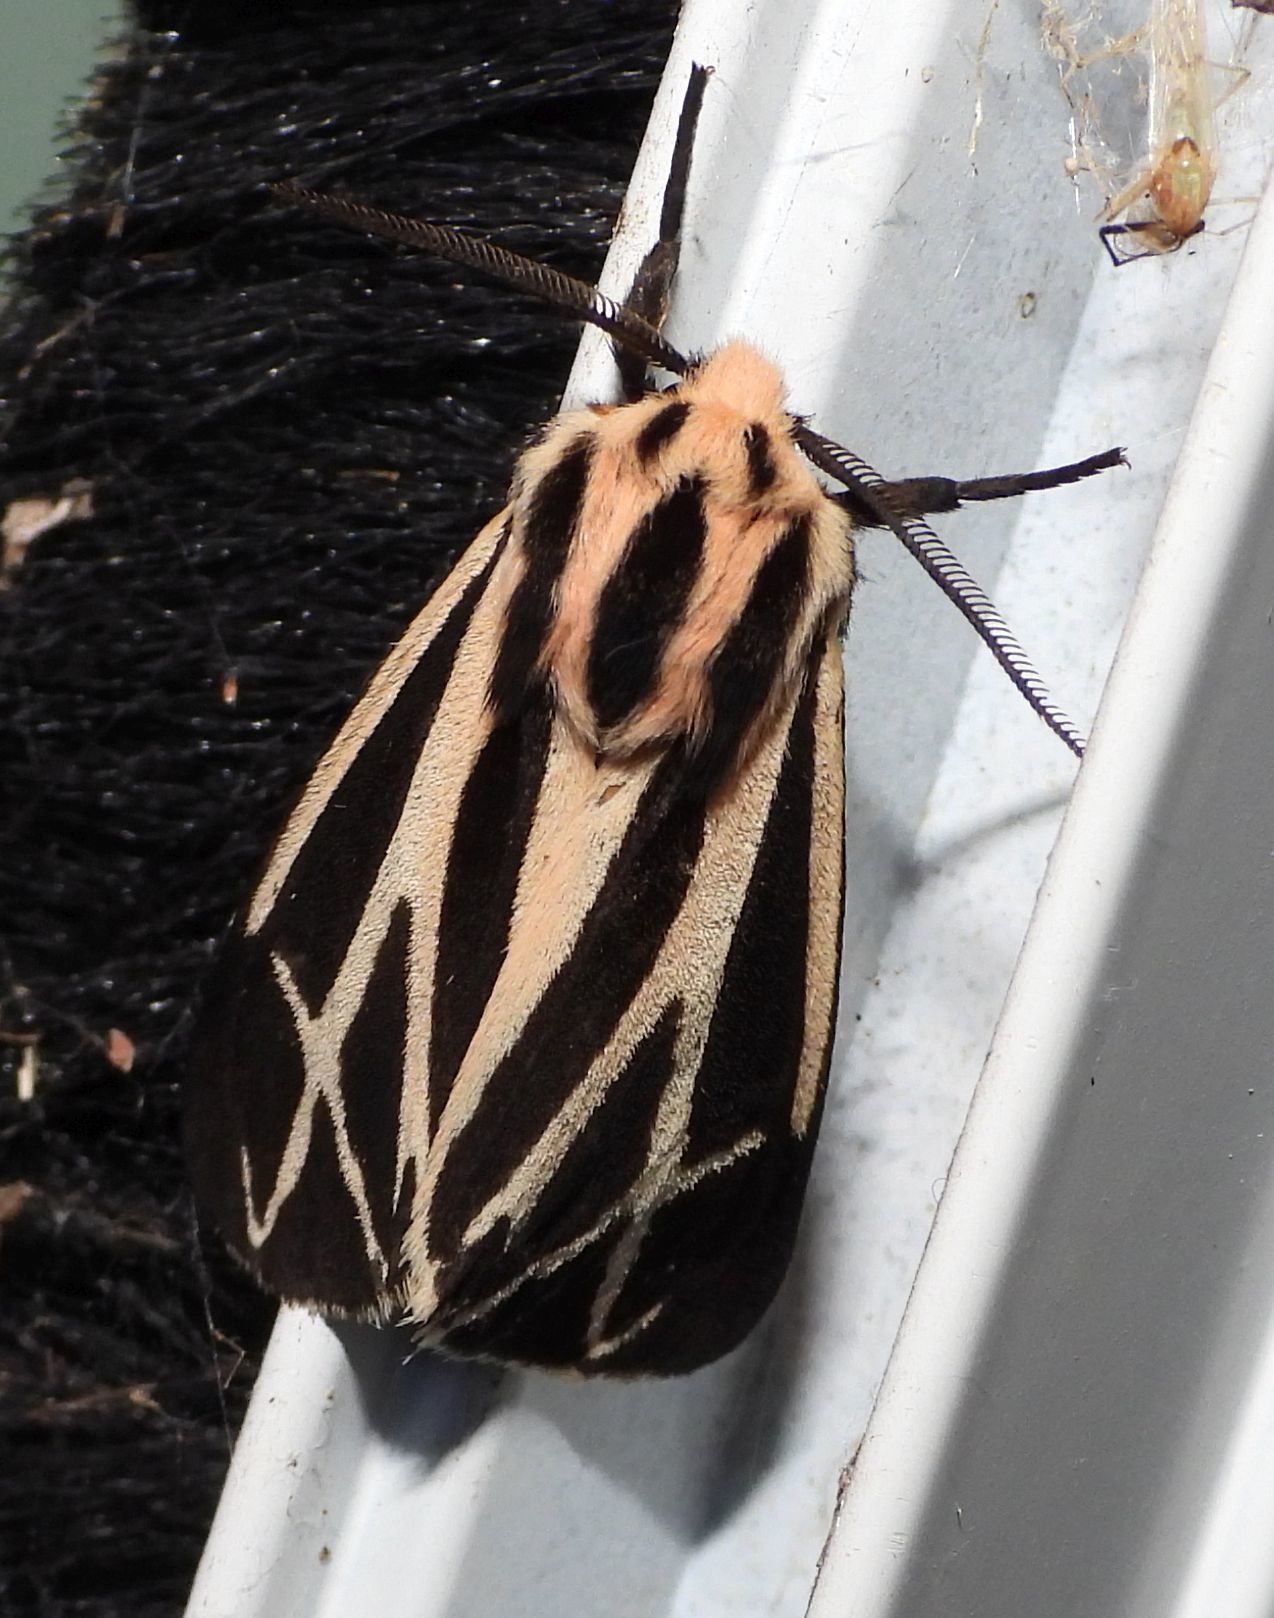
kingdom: Animalia
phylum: Arthropoda
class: Insecta
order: Lepidoptera
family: Erebidae
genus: Apantesis
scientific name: Apantesis phalerata
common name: Harnessed tiger moth
